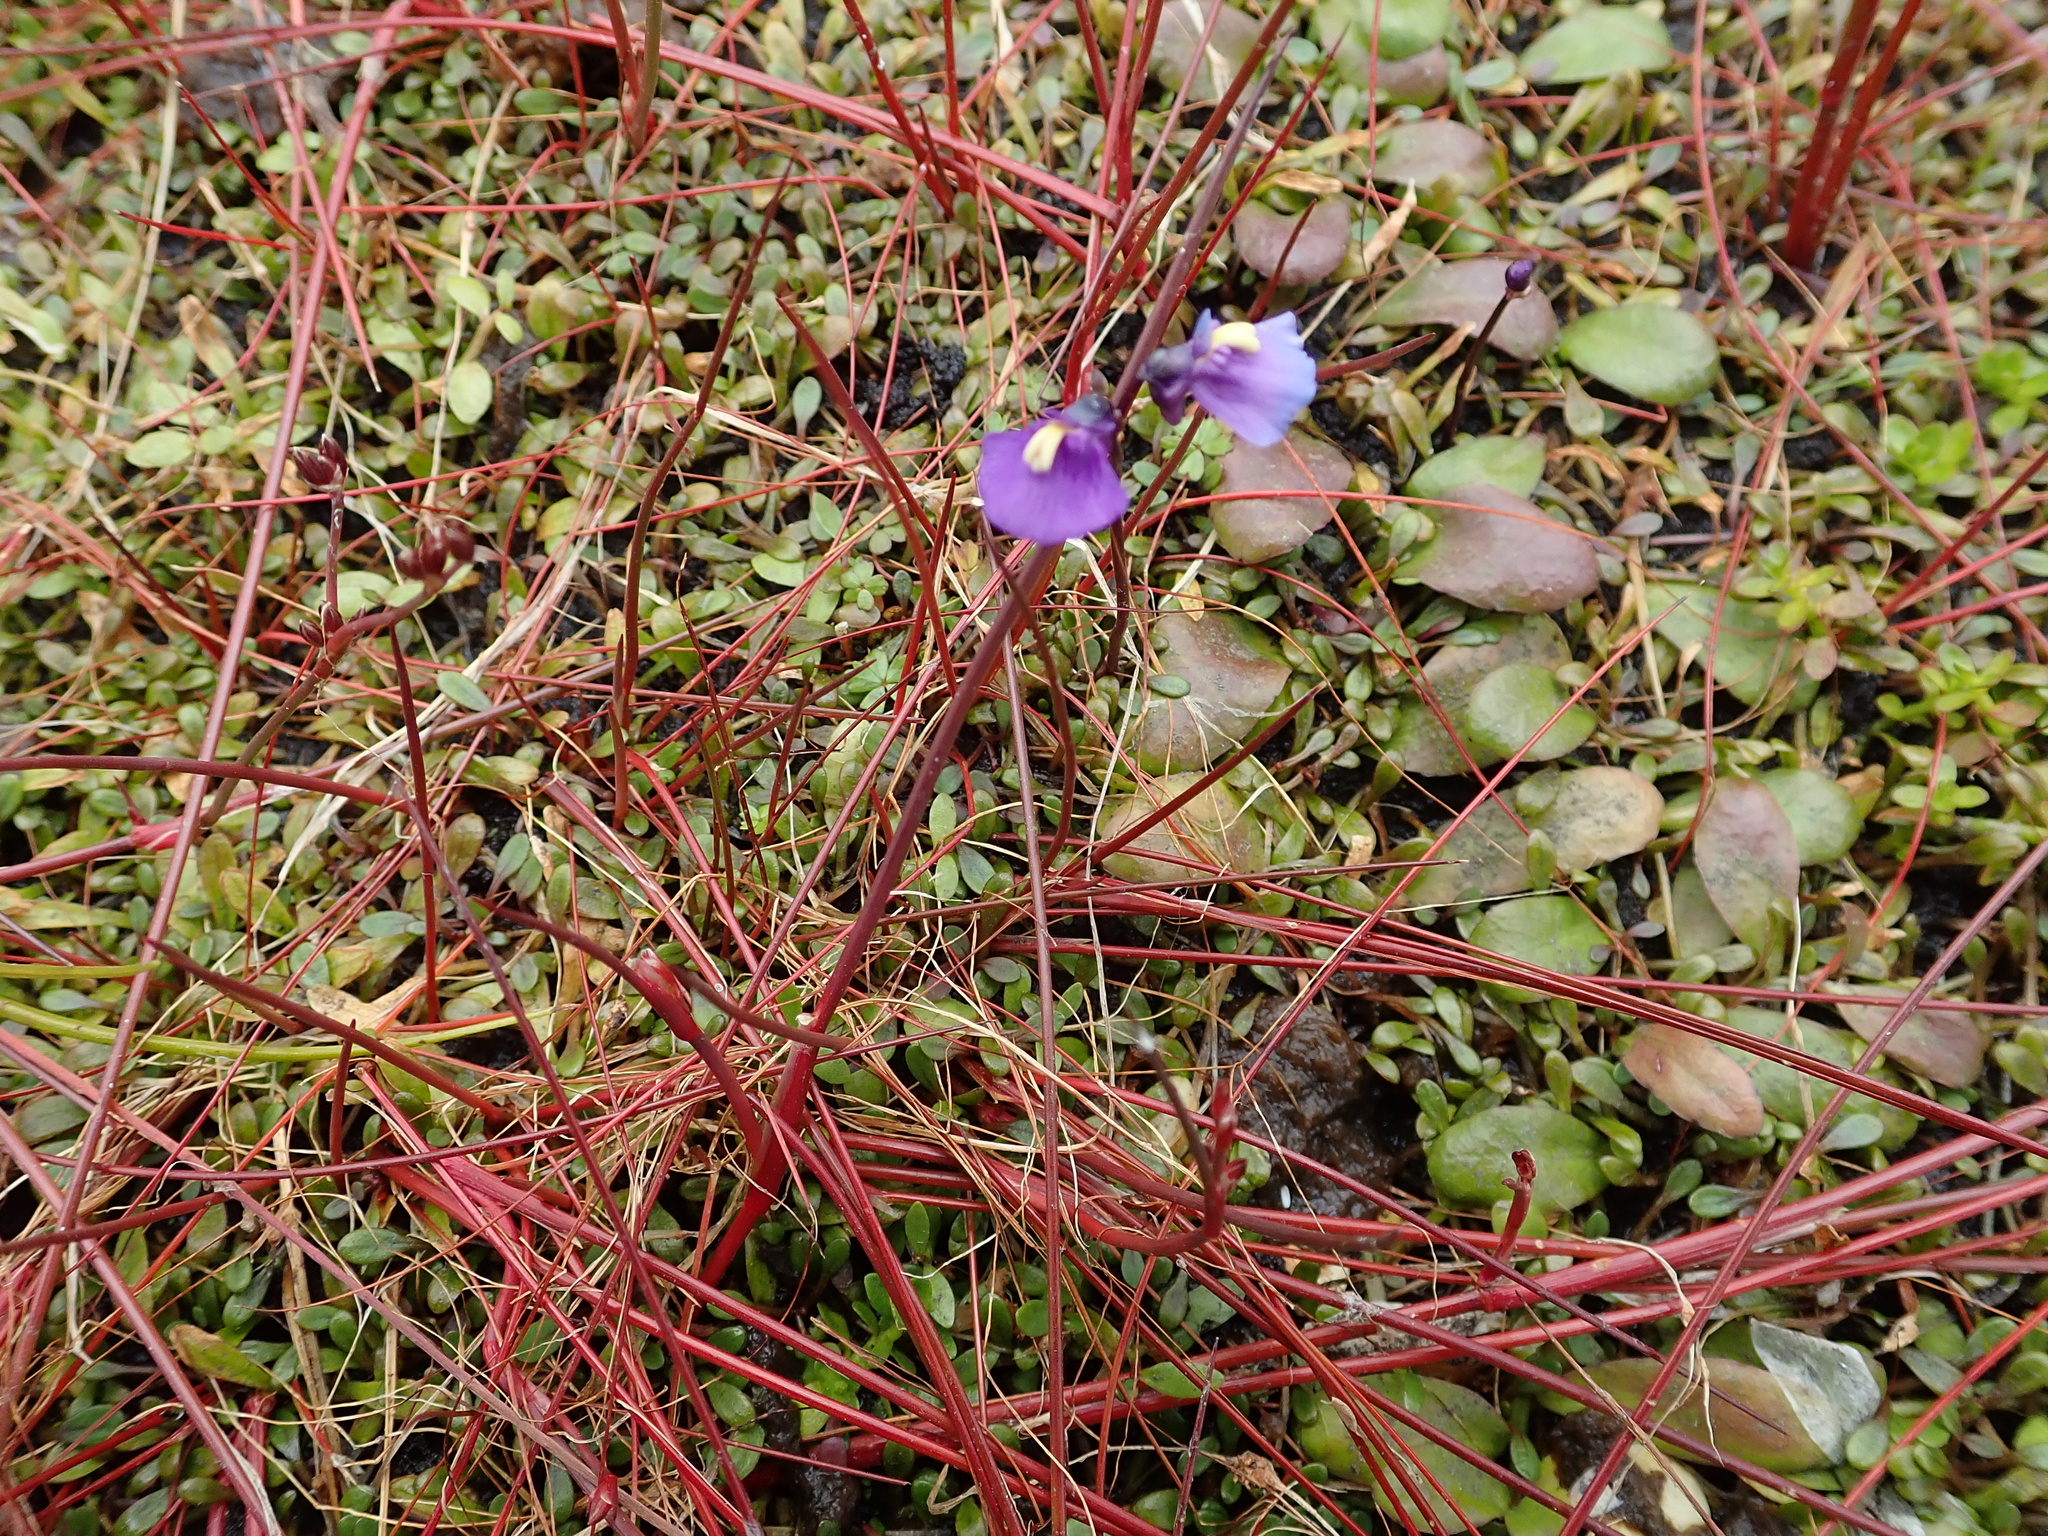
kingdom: Plantae
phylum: Tracheophyta
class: Magnoliopsida
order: Lamiales
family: Lentibulariaceae
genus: Utricularia
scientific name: Utricularia dichotoma
